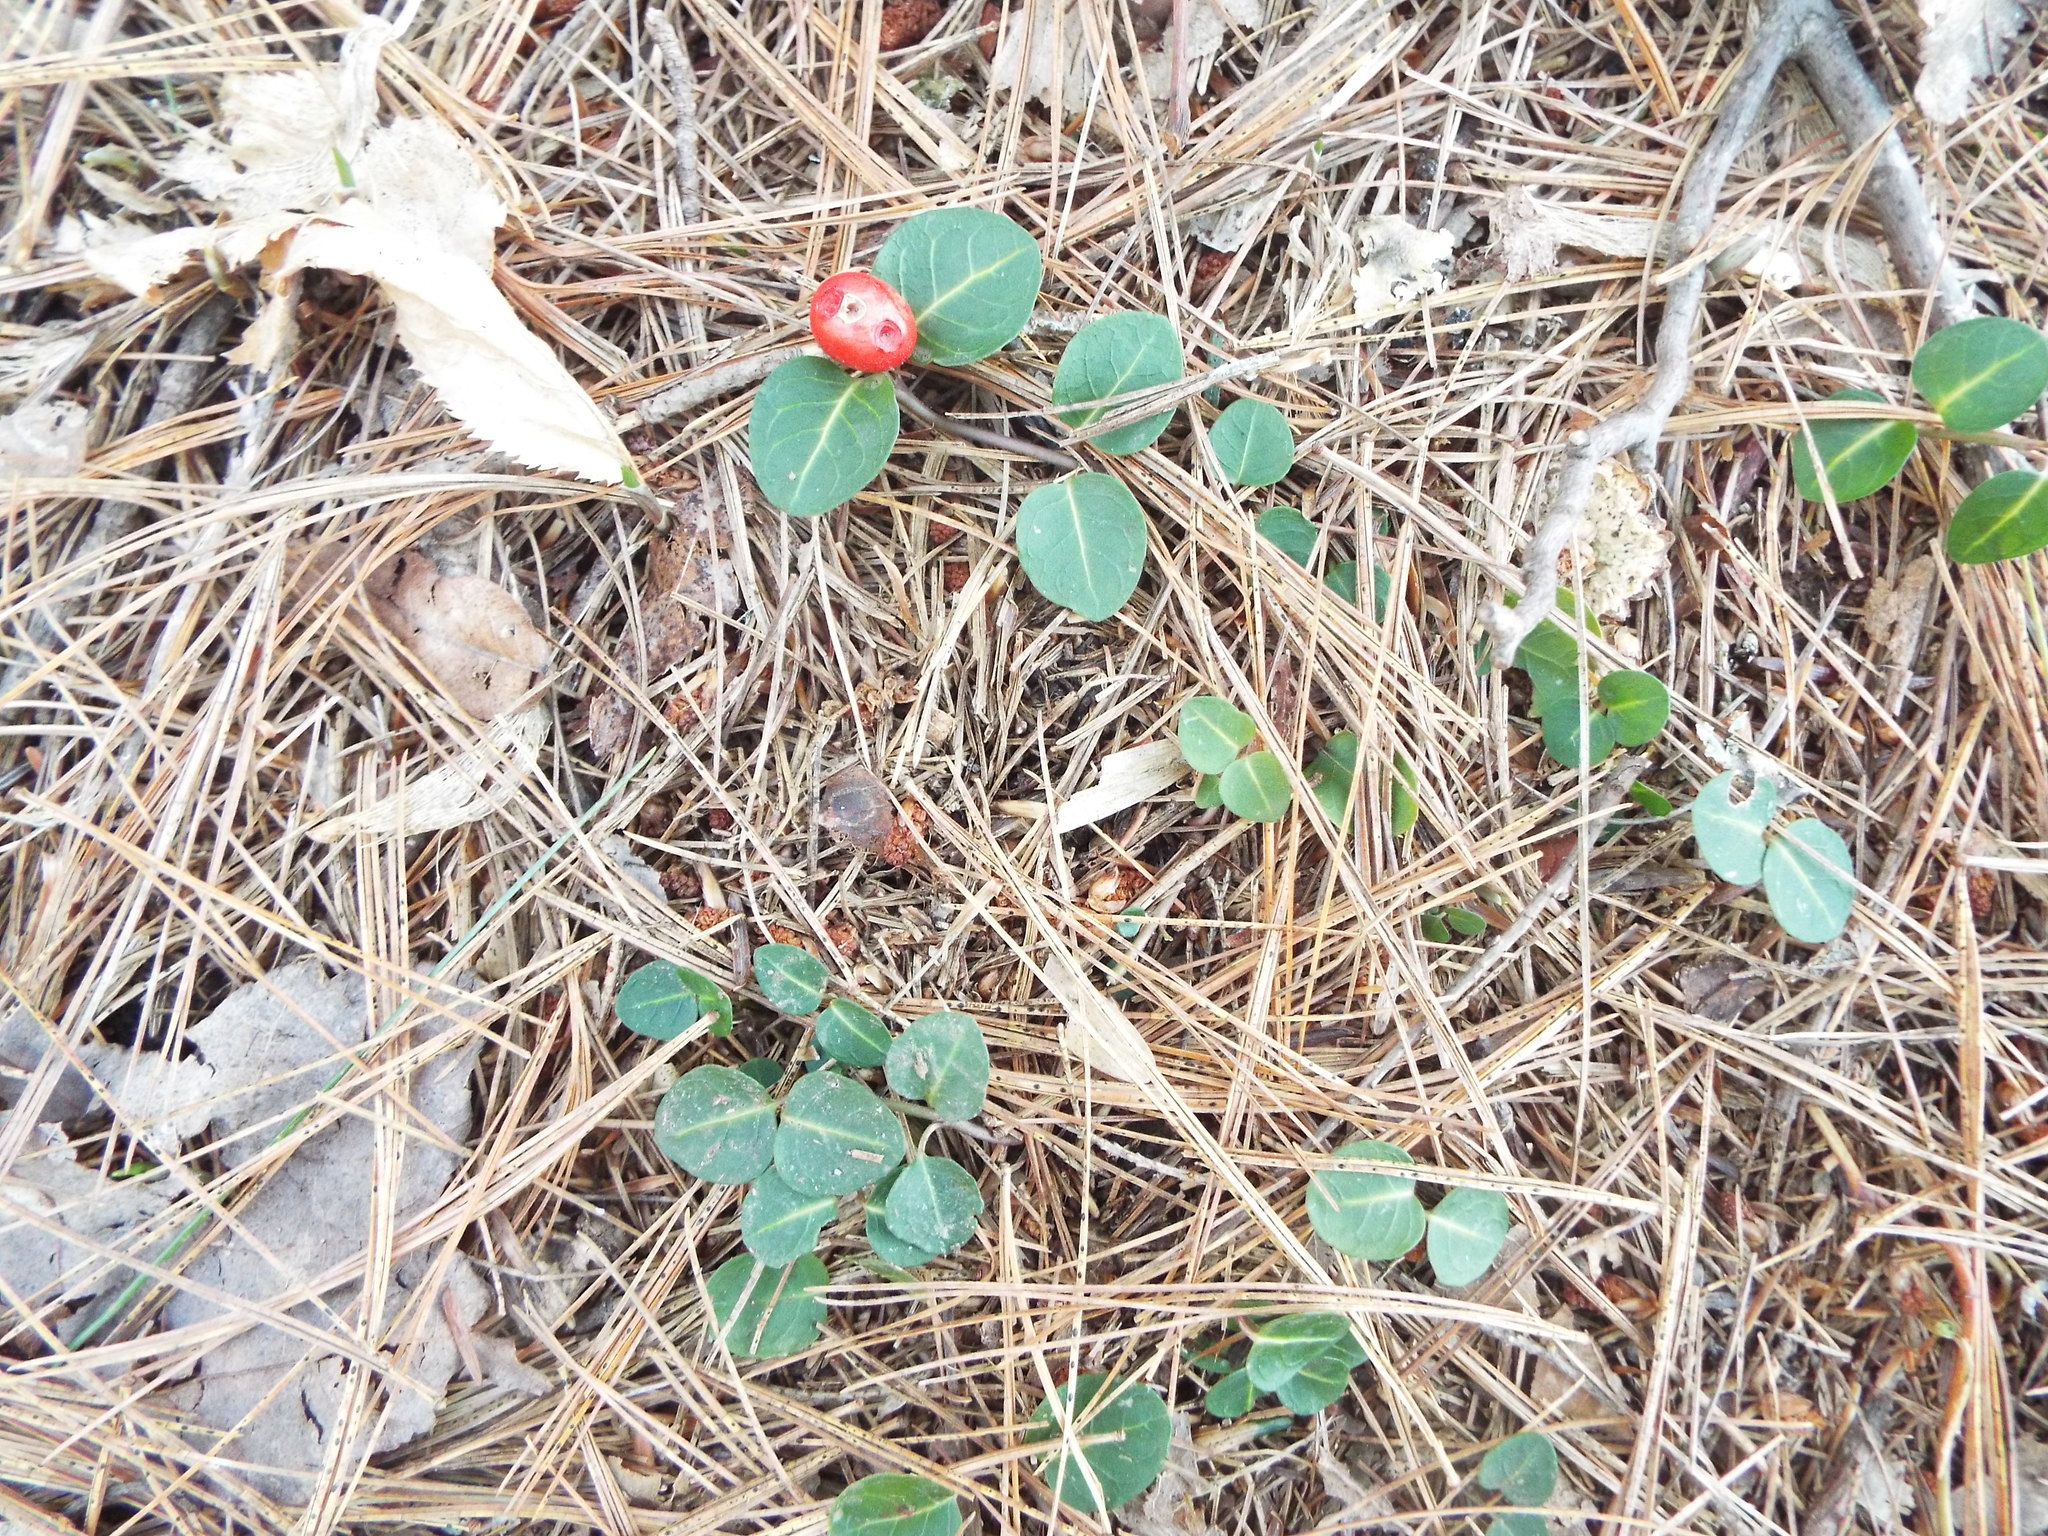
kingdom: Plantae
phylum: Tracheophyta
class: Magnoliopsida
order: Gentianales
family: Rubiaceae
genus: Mitchella
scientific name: Mitchella repens
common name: Partridge-berry
